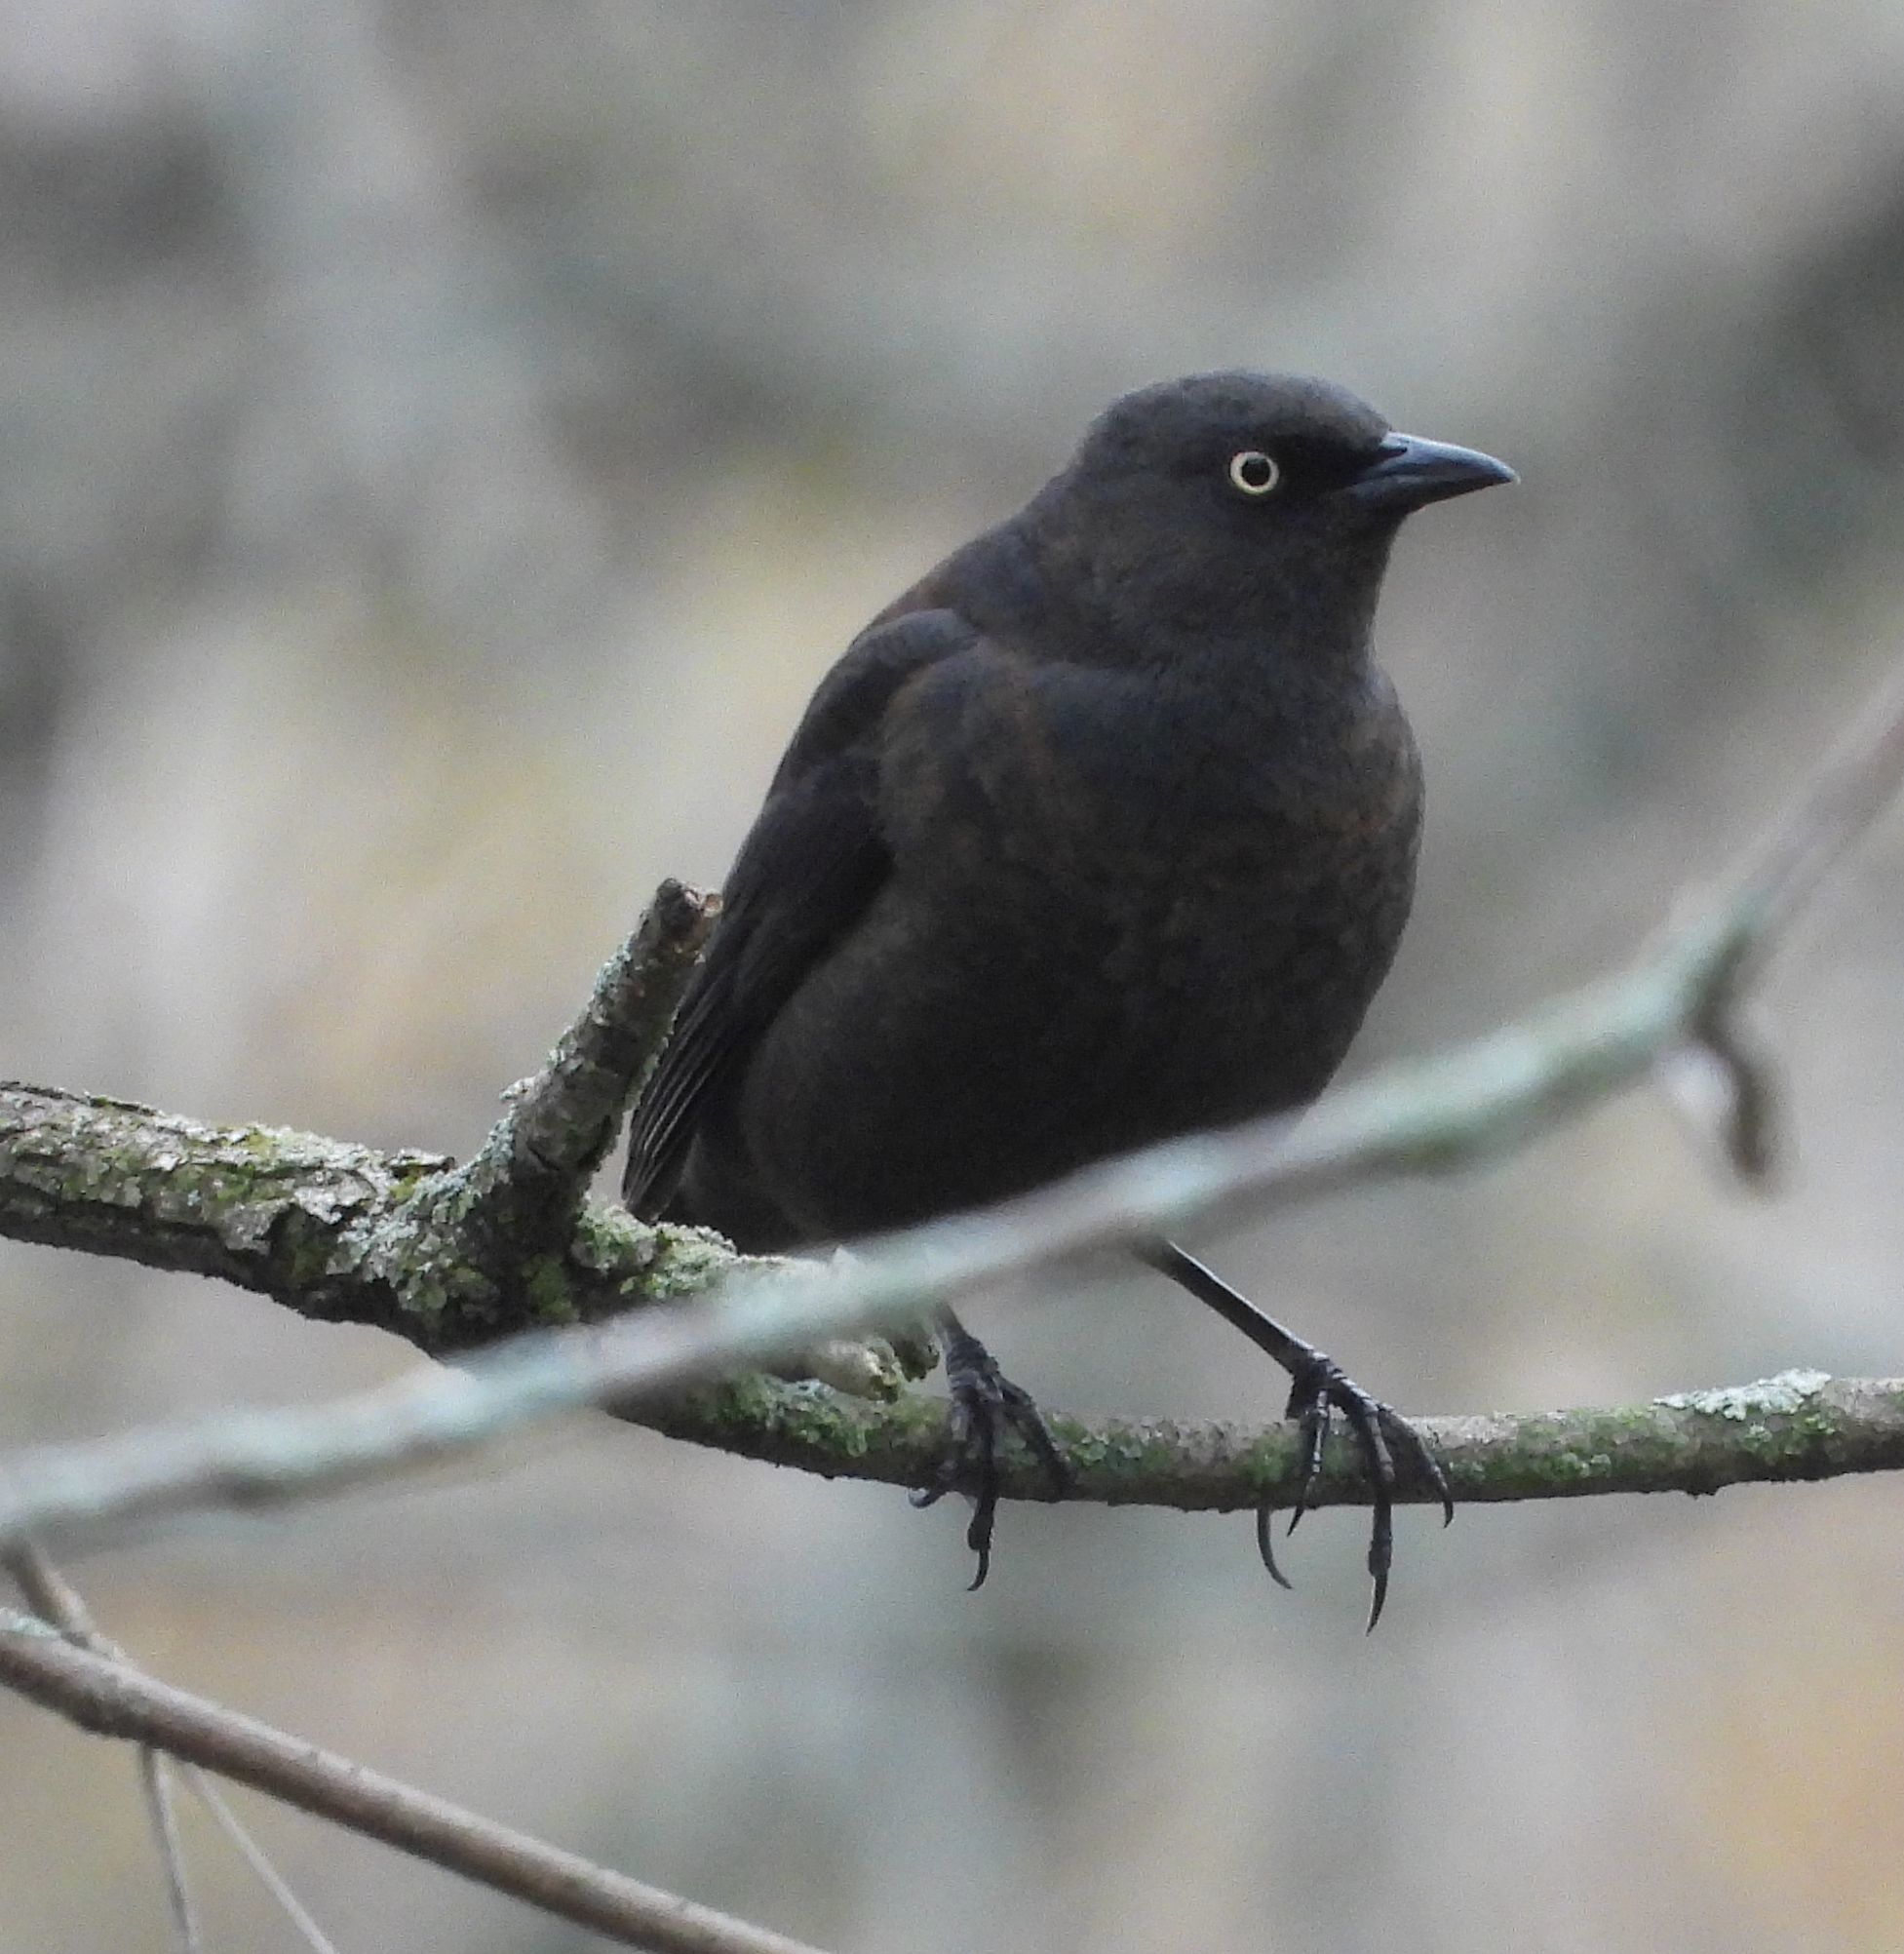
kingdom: Animalia
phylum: Chordata
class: Aves
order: Passeriformes
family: Icteridae
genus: Euphagus
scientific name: Euphagus carolinus
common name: Rusty blackbird
